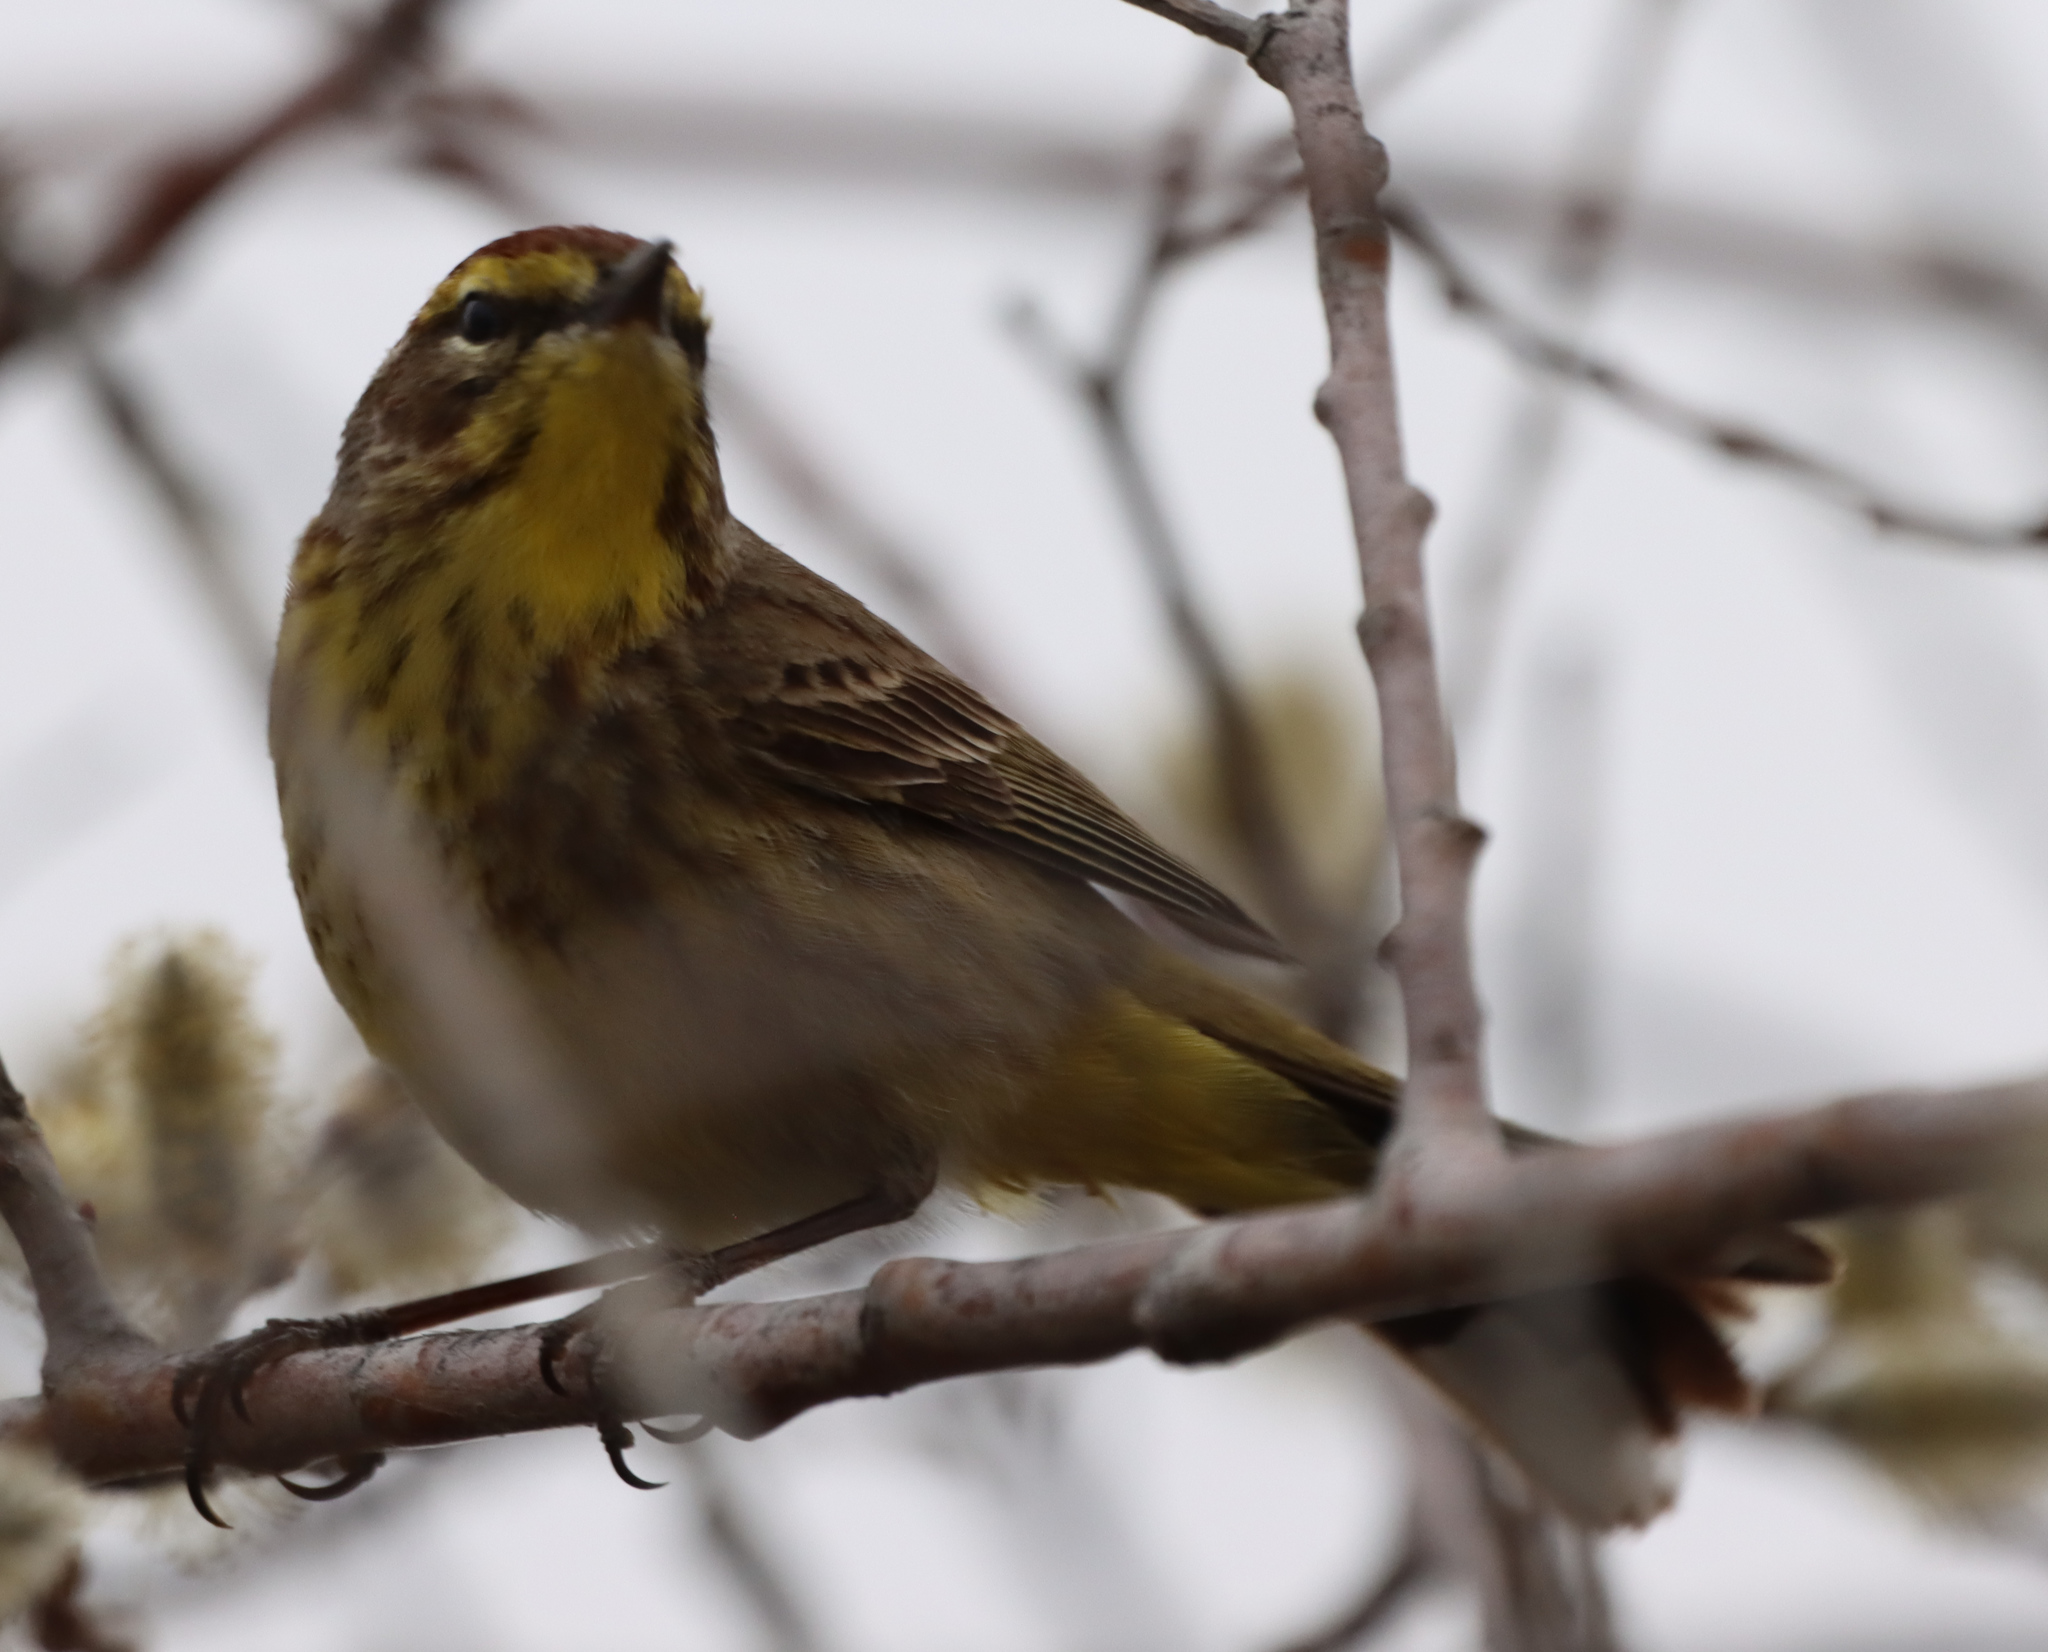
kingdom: Animalia
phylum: Chordata
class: Aves
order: Passeriformes
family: Parulidae
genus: Setophaga
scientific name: Setophaga palmarum
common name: Palm warbler
